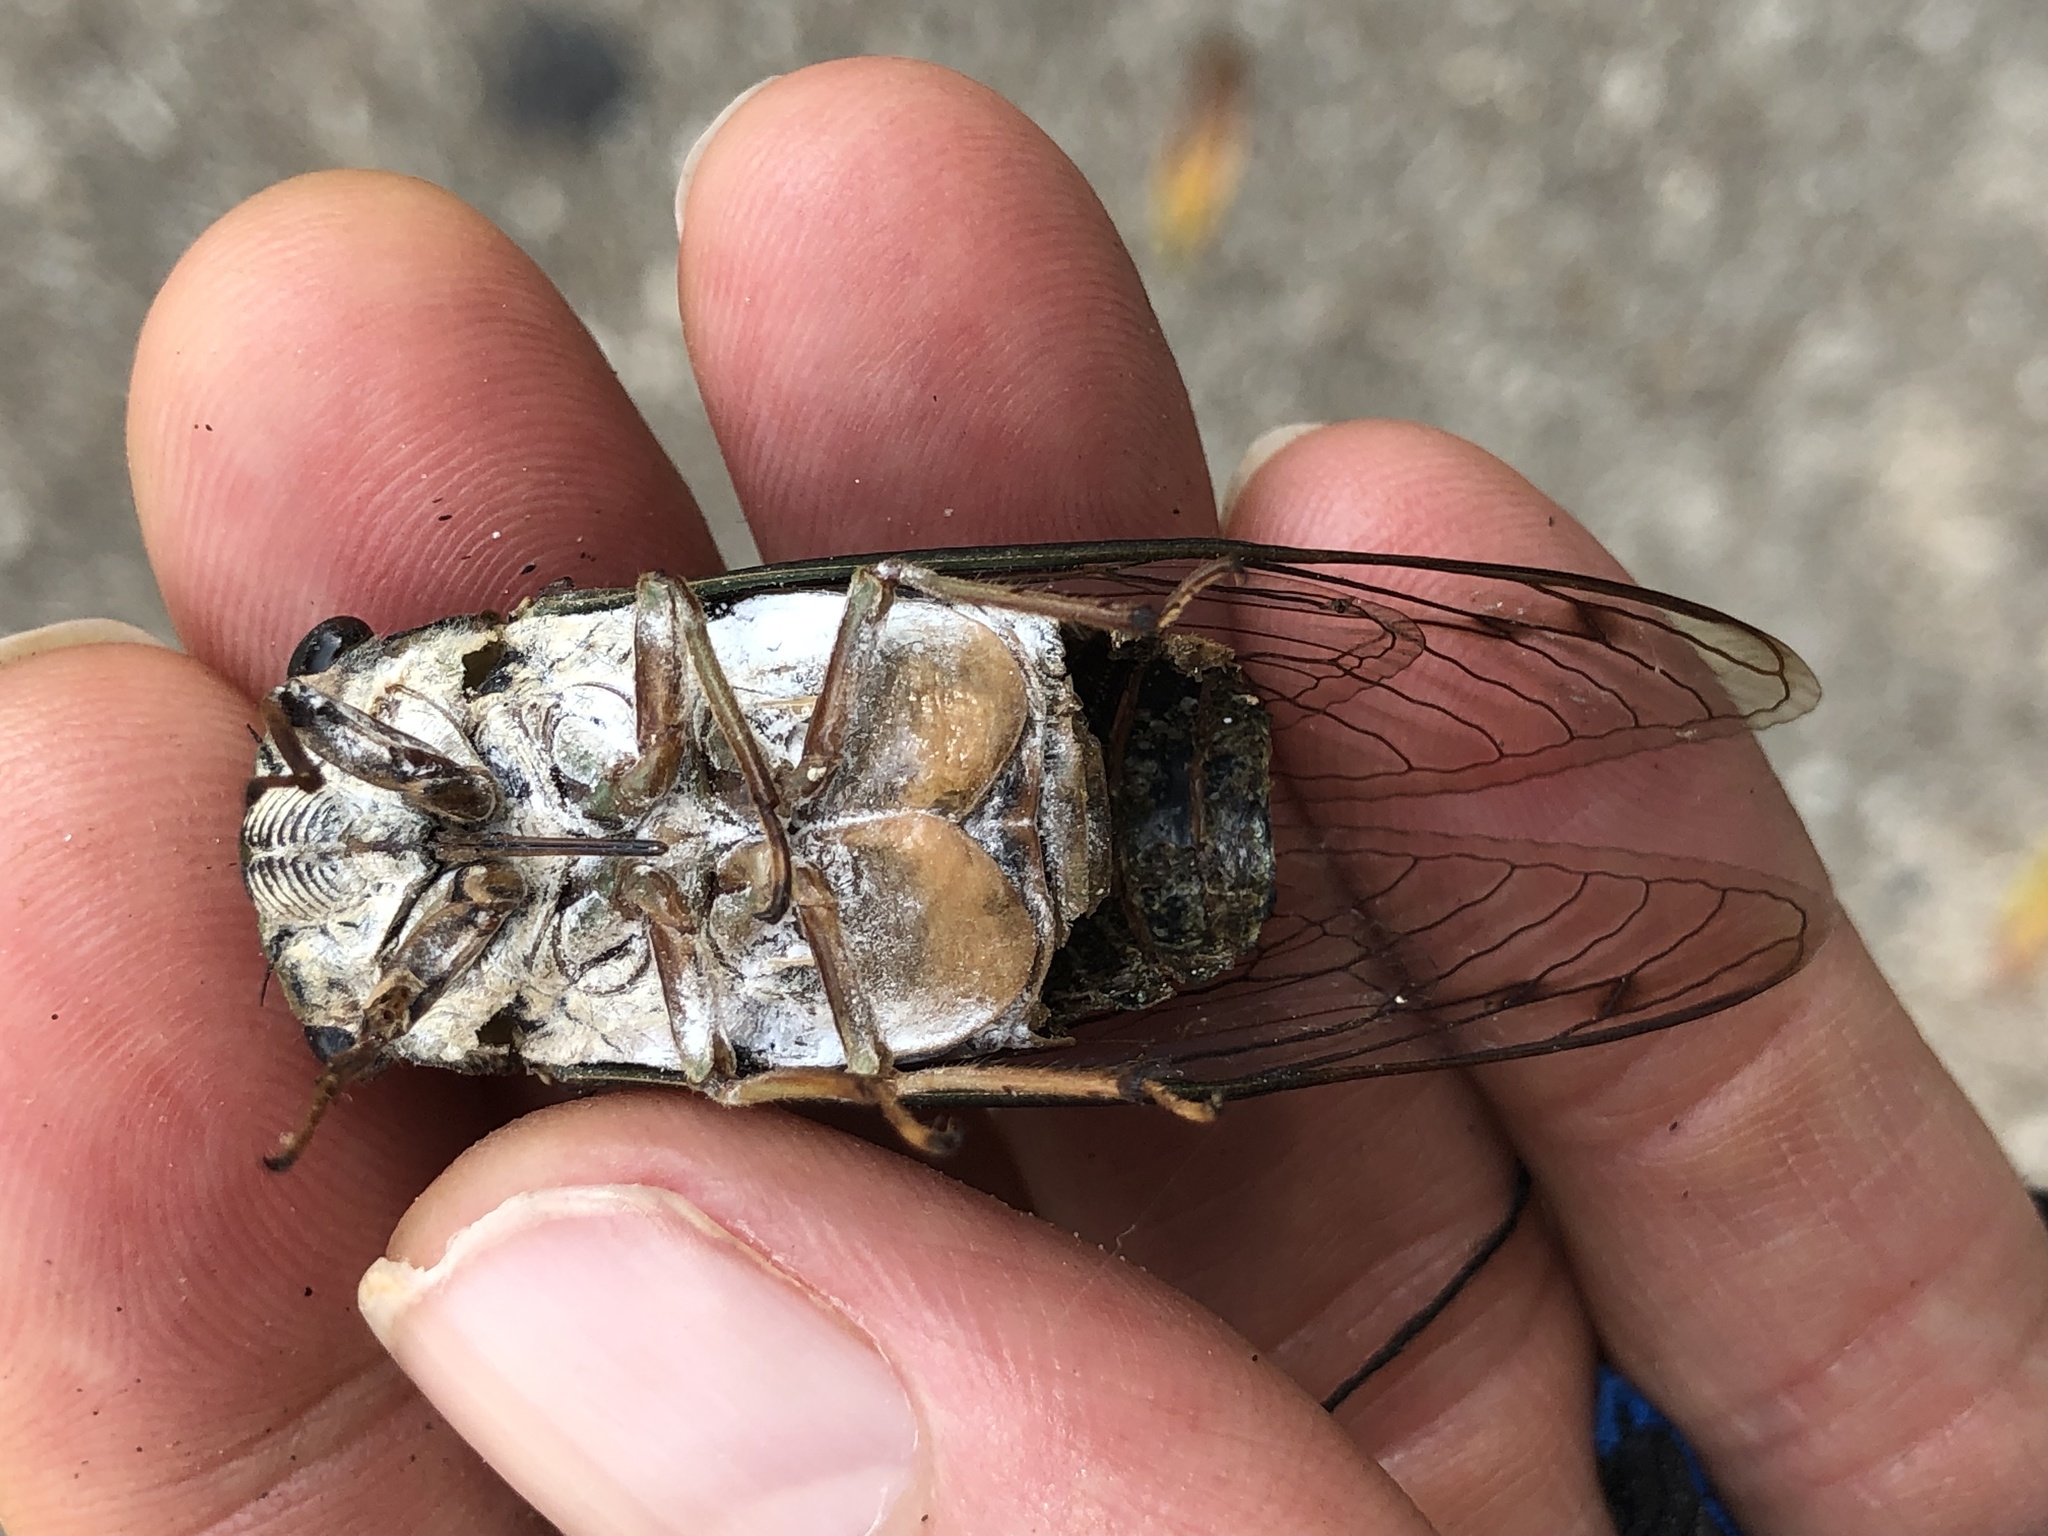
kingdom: Animalia
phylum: Arthropoda
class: Insecta
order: Hemiptera
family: Cicadidae
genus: Neotibicen
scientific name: Neotibicen pruinosus
